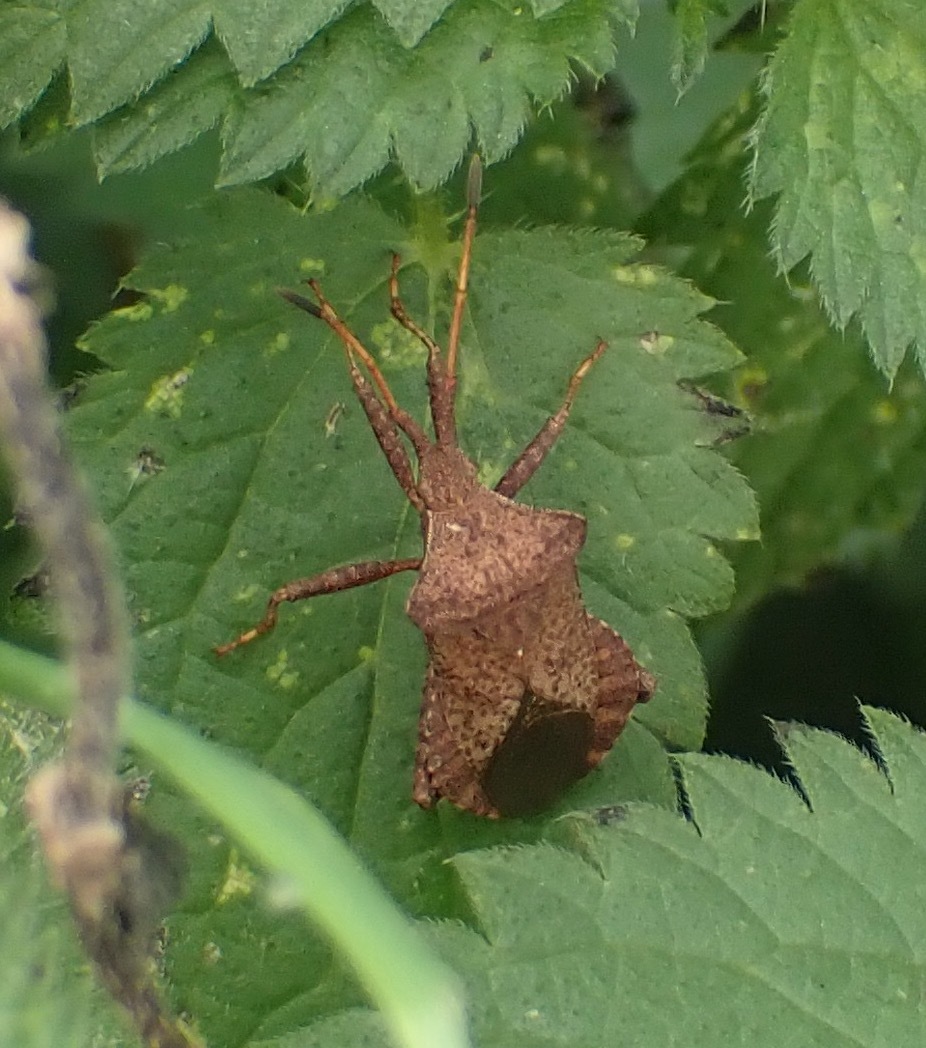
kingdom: Animalia
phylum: Arthropoda
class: Insecta
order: Hemiptera
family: Coreidae
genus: Coreus
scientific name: Coreus marginatus
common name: Dock bug
